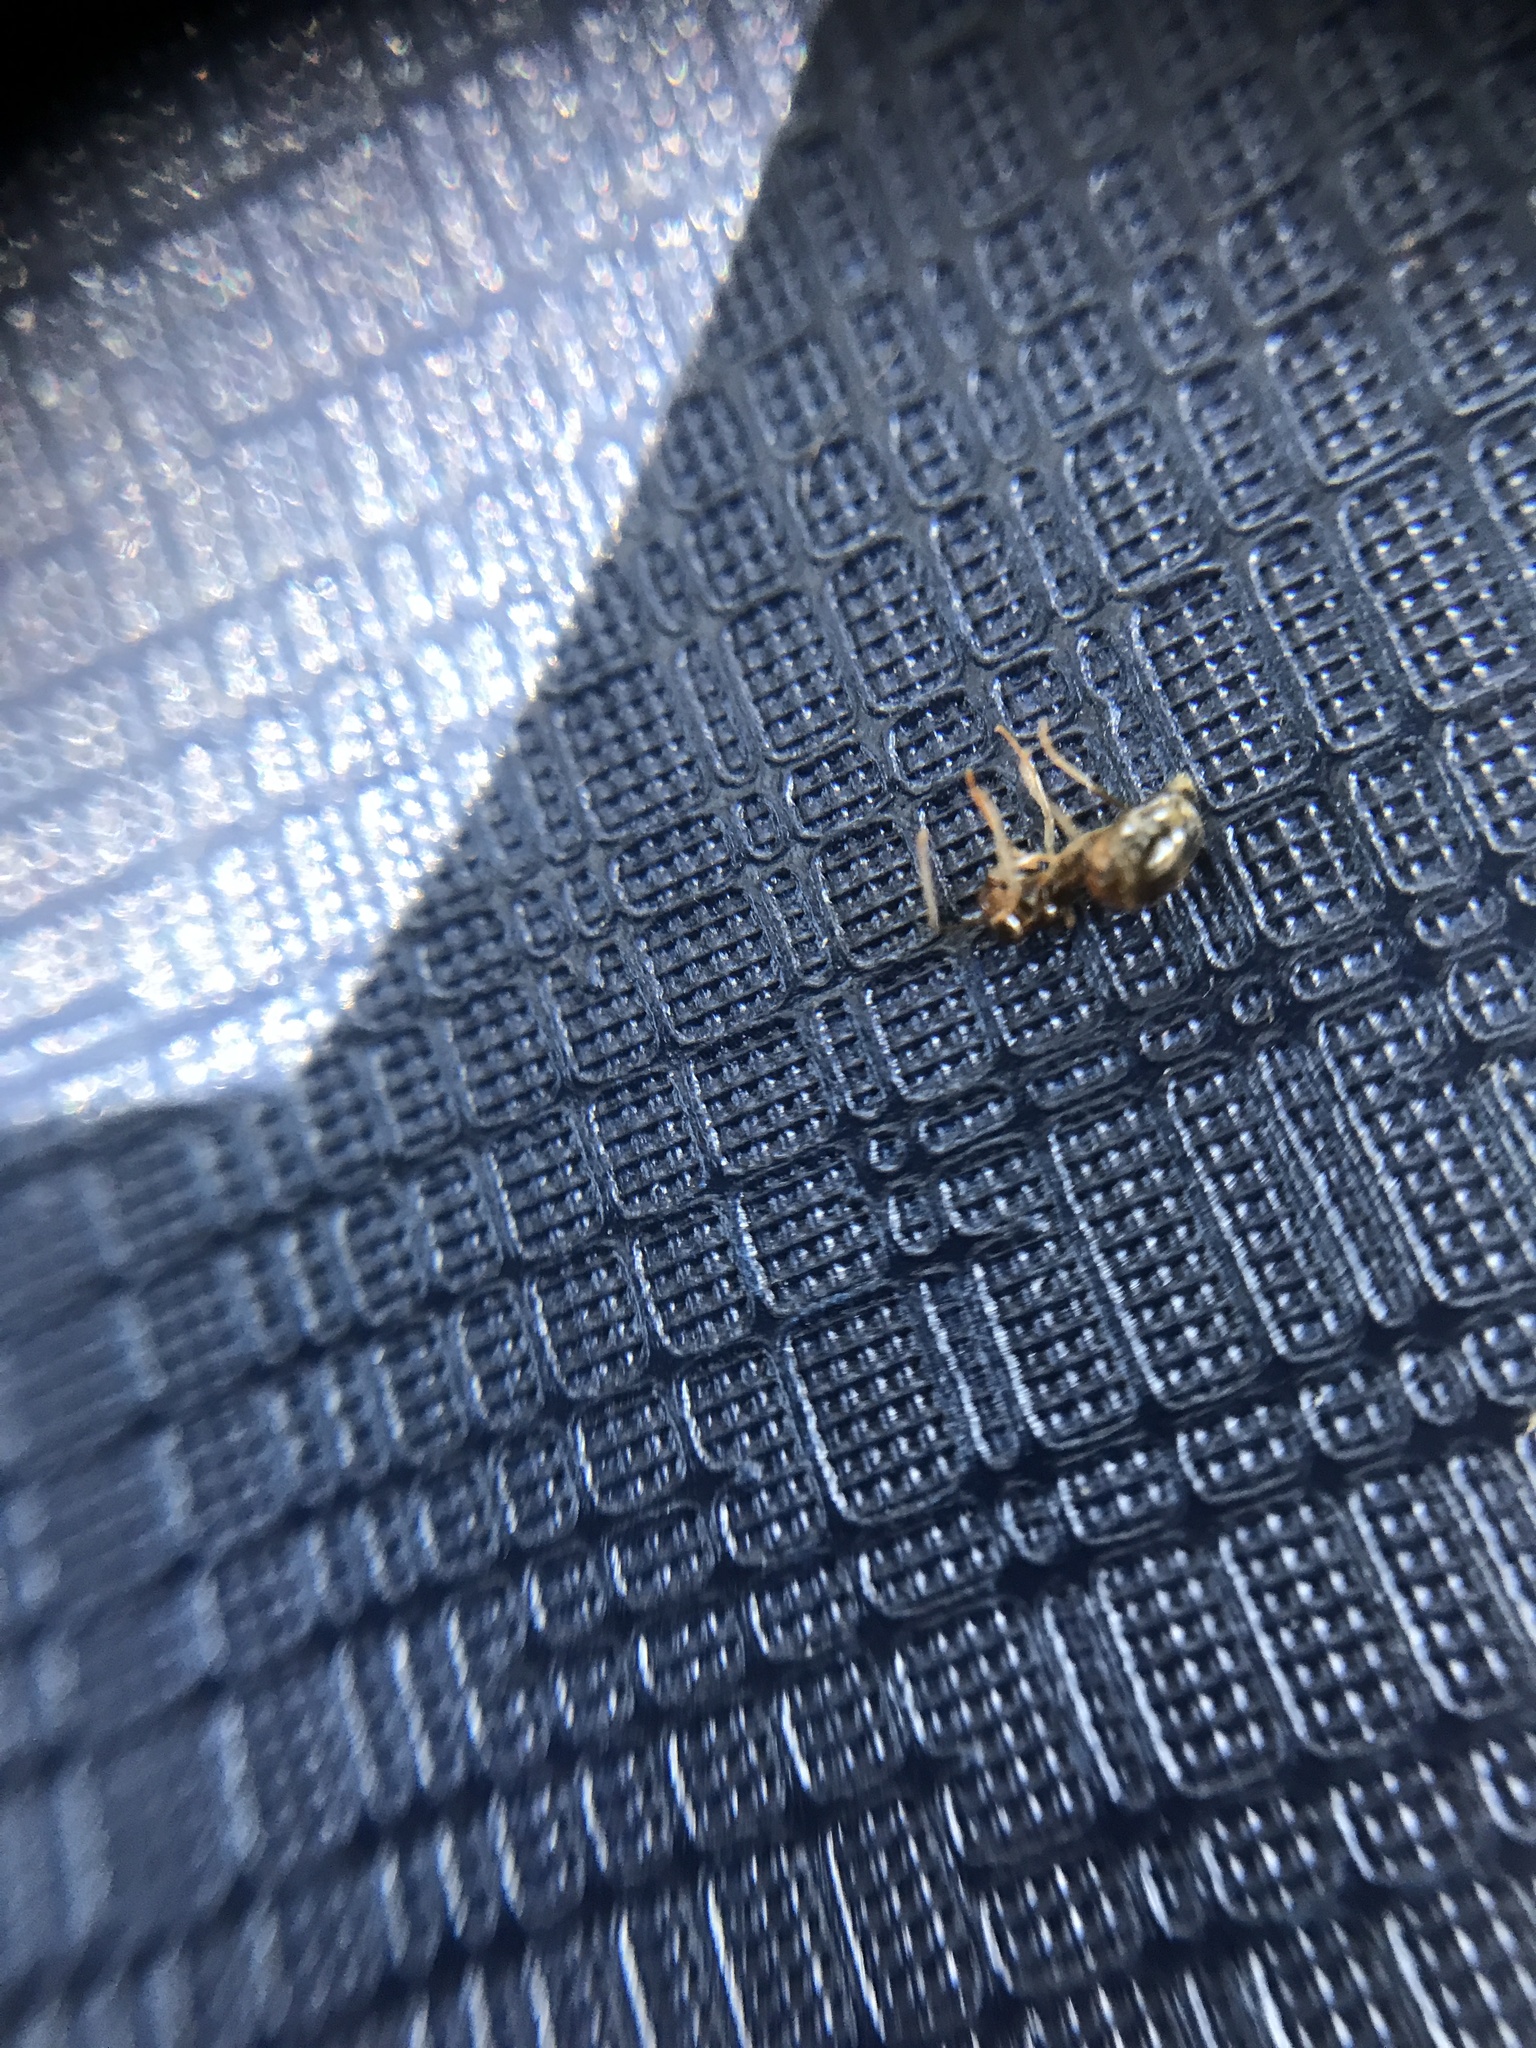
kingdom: Animalia
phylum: Arthropoda
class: Insecta
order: Hymenoptera
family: Formicidae
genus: Prenolepis
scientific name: Prenolepis imparis
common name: Small honey ant
